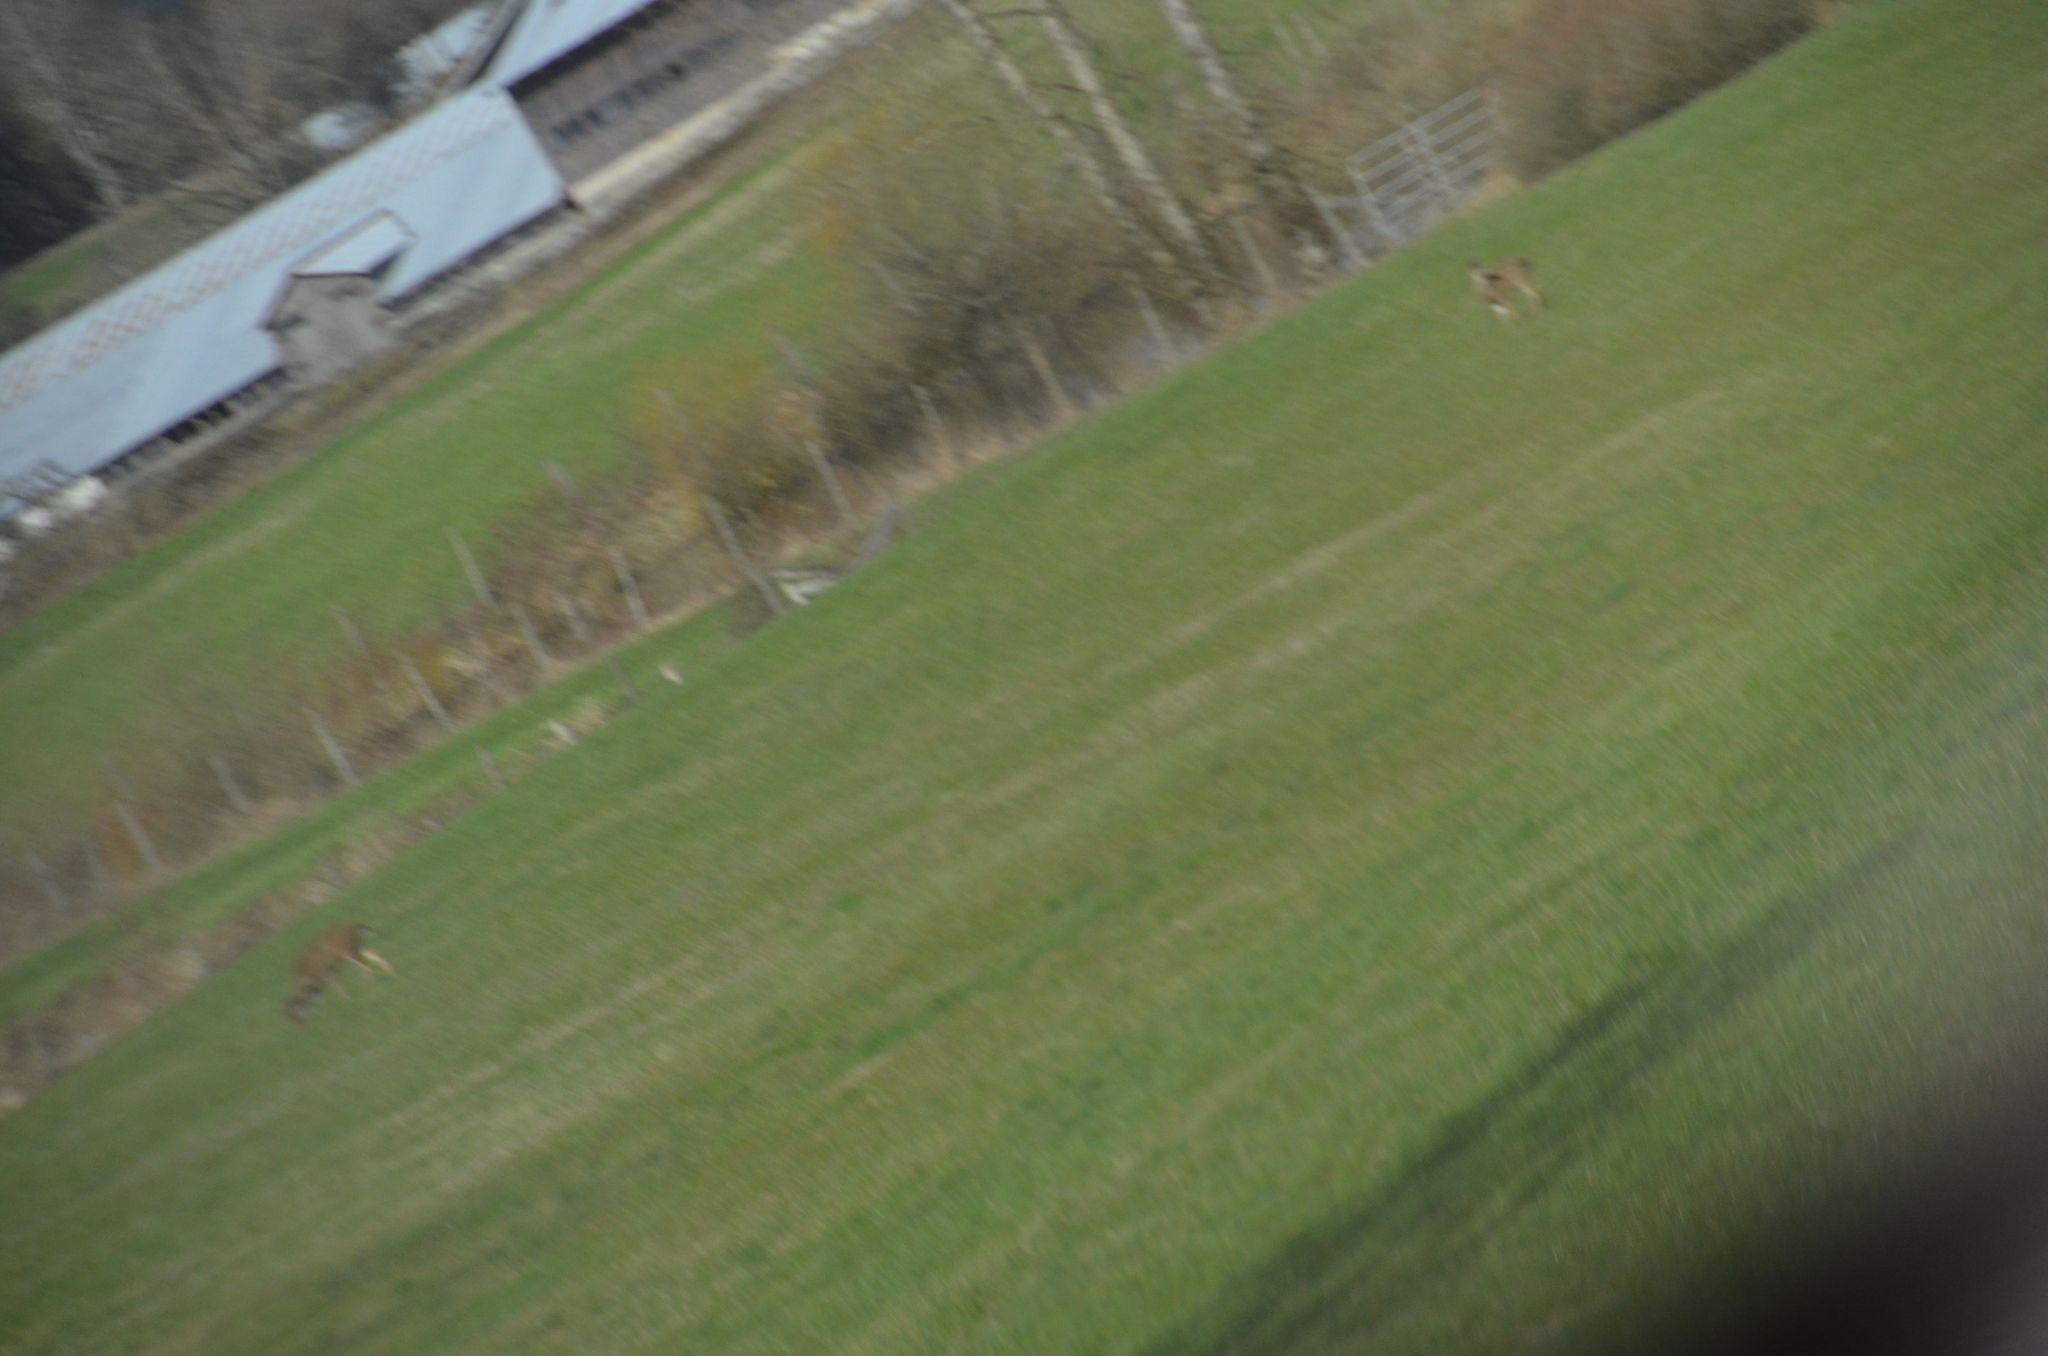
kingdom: Animalia
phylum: Chordata
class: Mammalia
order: Artiodactyla
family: Cervidae
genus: Odocoileus
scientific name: Odocoileus hemionus
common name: Mule deer
